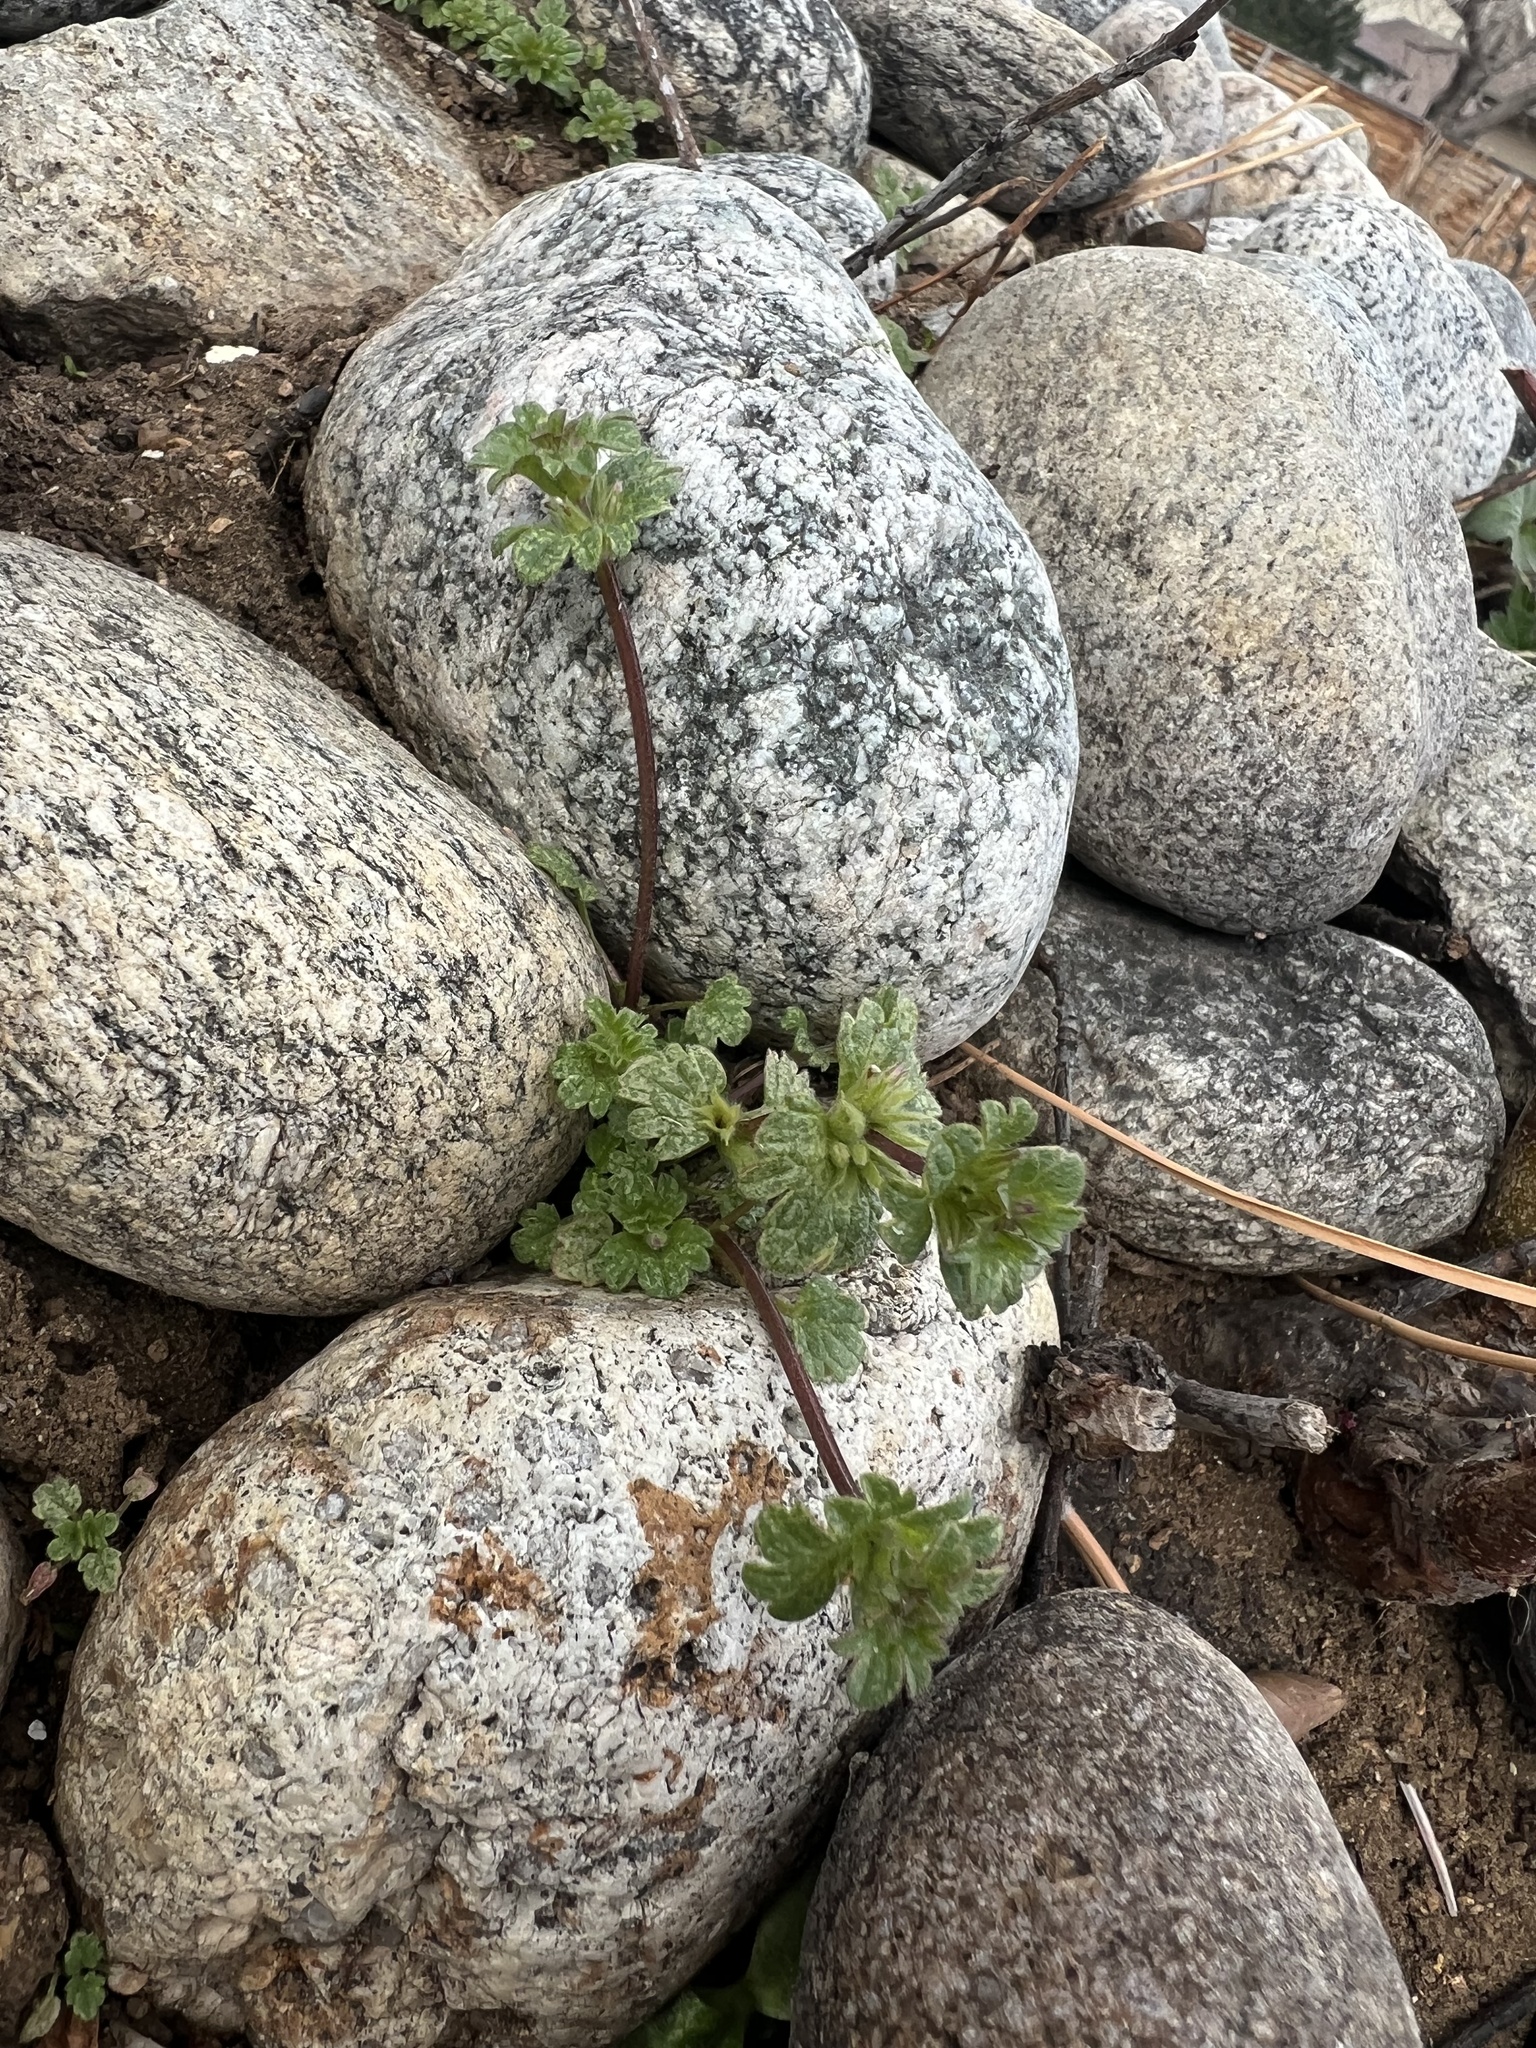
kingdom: Plantae
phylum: Tracheophyta
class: Magnoliopsida
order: Lamiales
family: Lamiaceae
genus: Lamium
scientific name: Lamium amplexicaule
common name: Henbit dead-nettle
